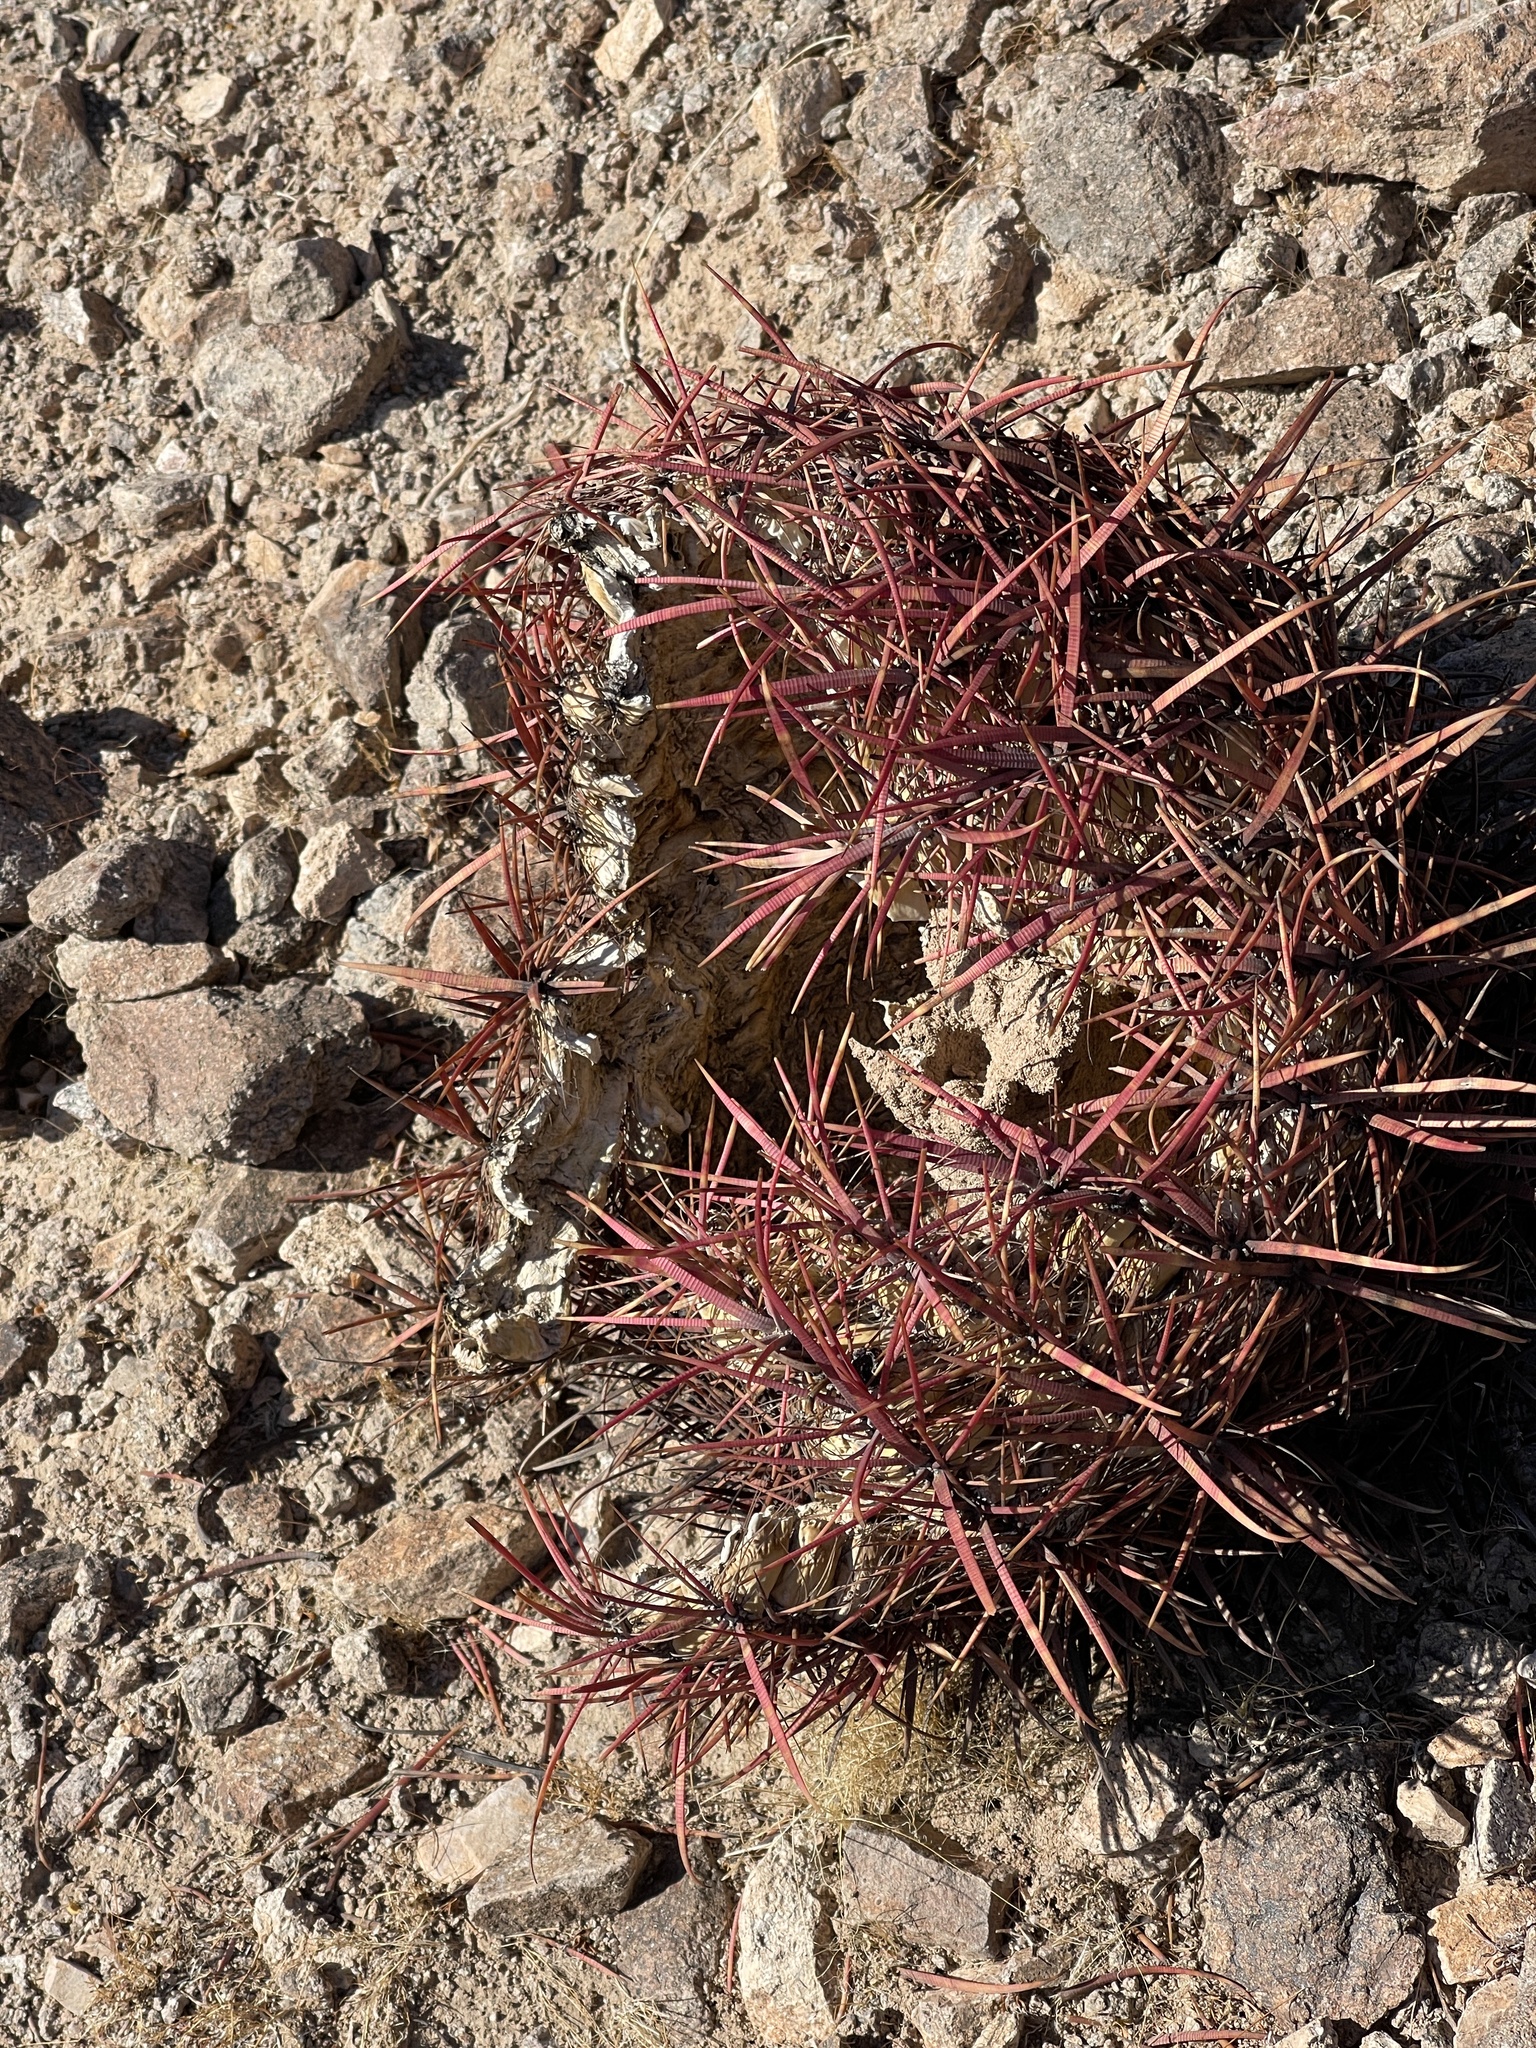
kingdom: Plantae
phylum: Tracheophyta
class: Magnoliopsida
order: Caryophyllales
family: Cactaceae
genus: Ferocactus
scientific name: Ferocactus cylindraceus
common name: California barrel cactus
